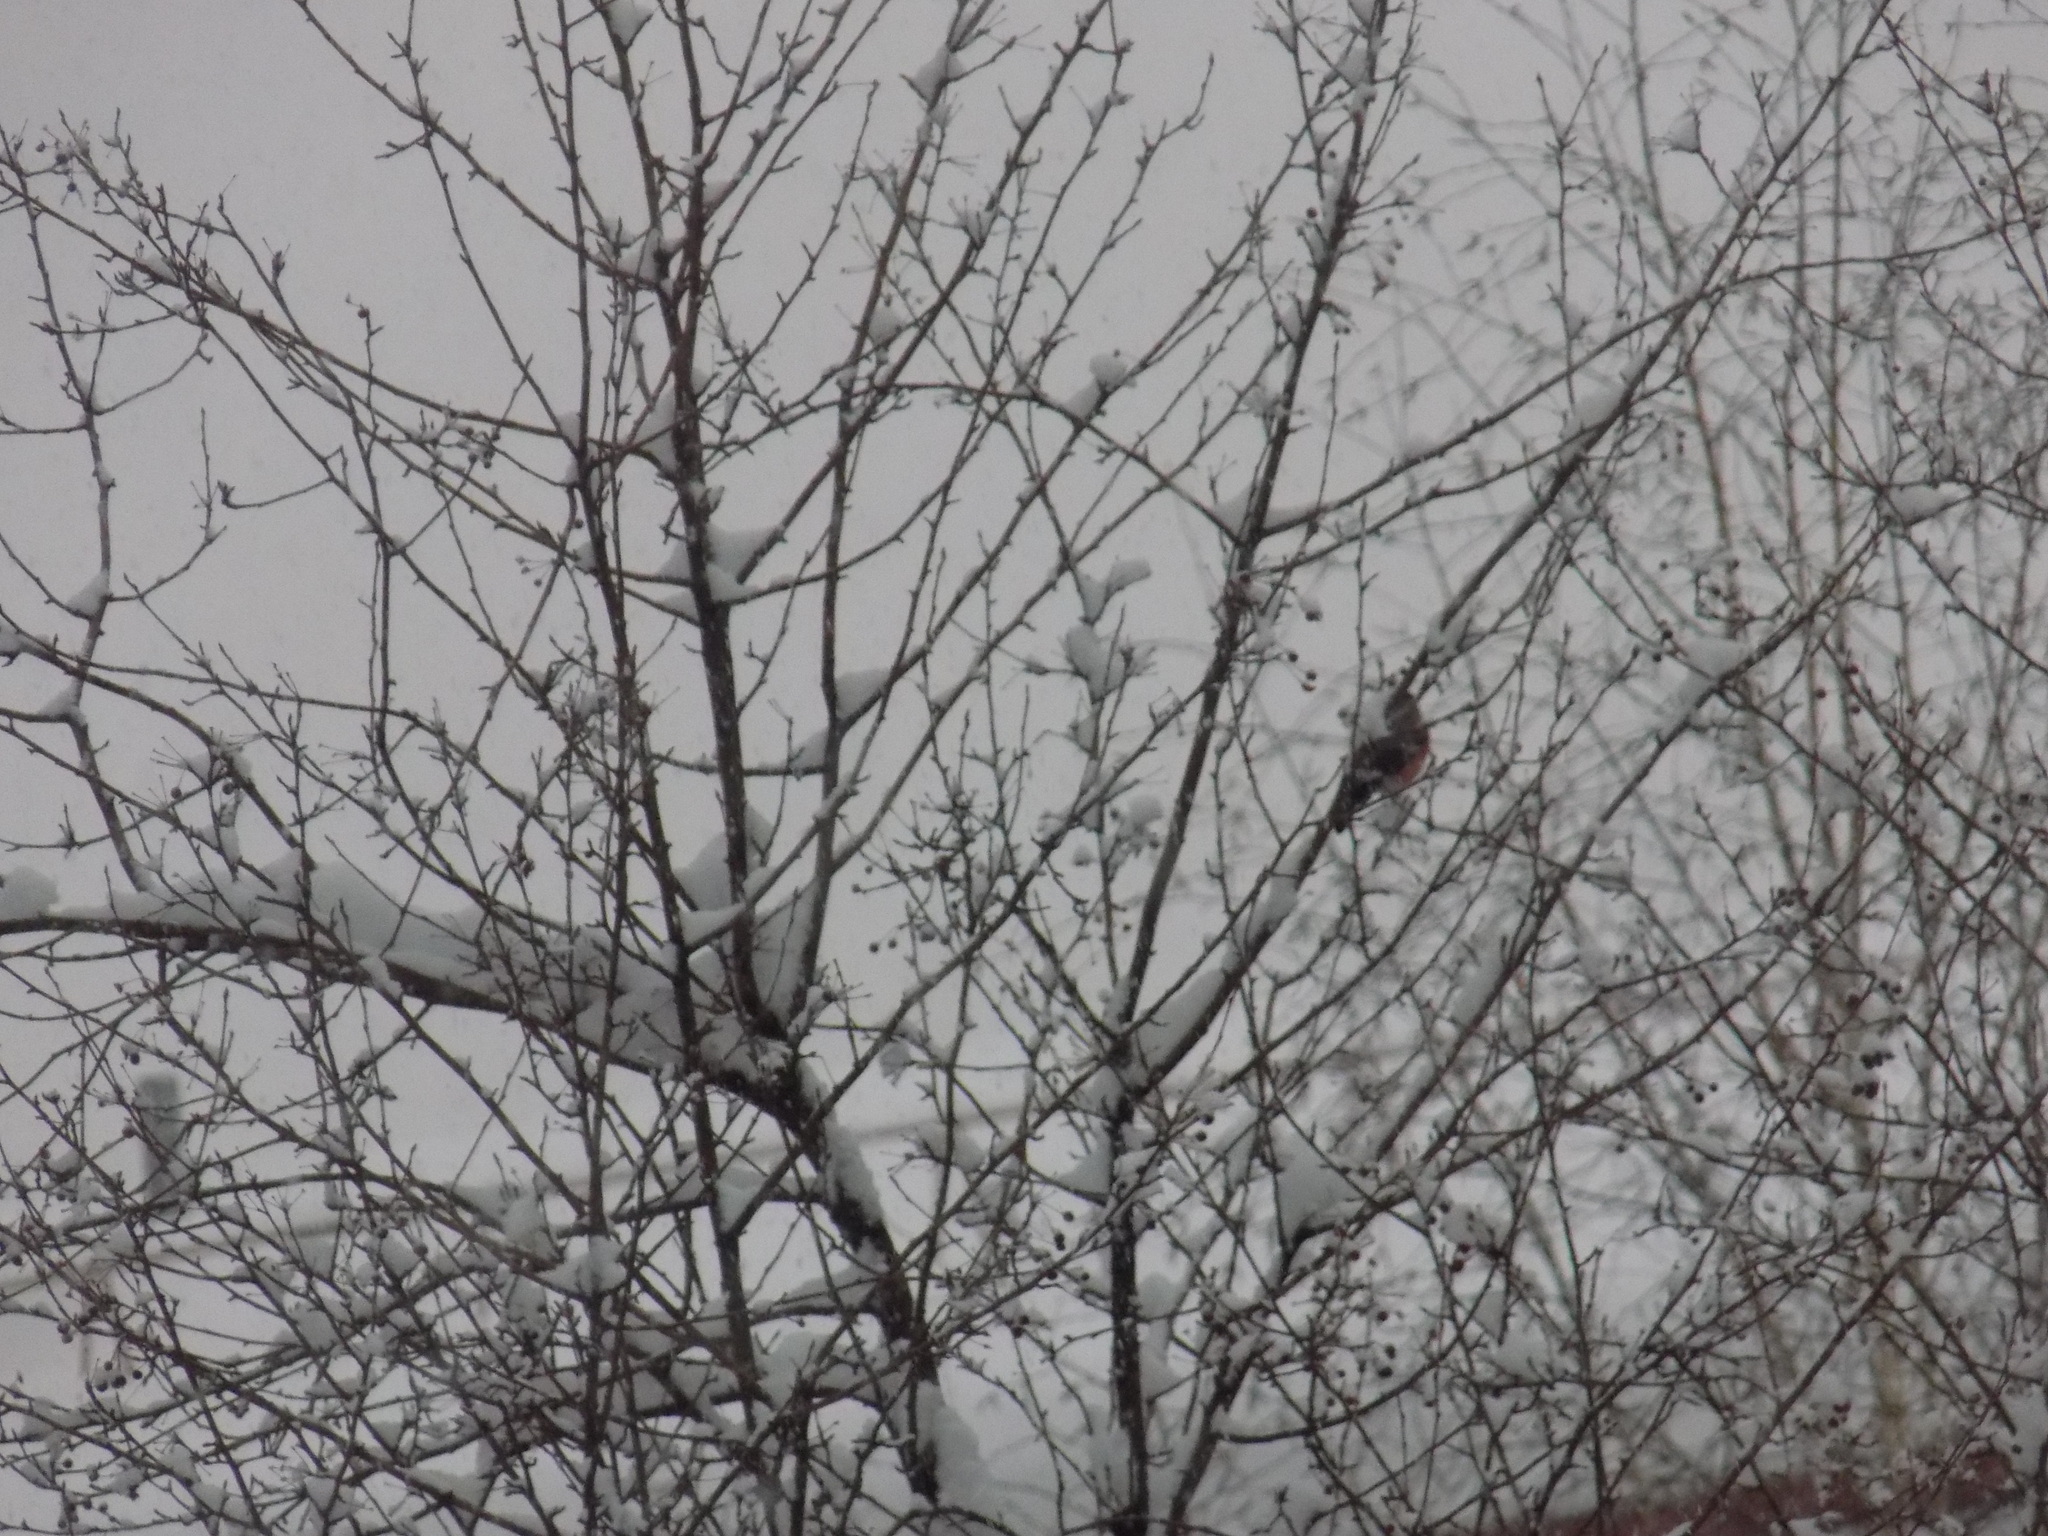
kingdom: Animalia
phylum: Chordata
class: Aves
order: Passeriformes
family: Fringillidae
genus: Pyrrhula
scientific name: Pyrrhula pyrrhula
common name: Eurasian bullfinch
